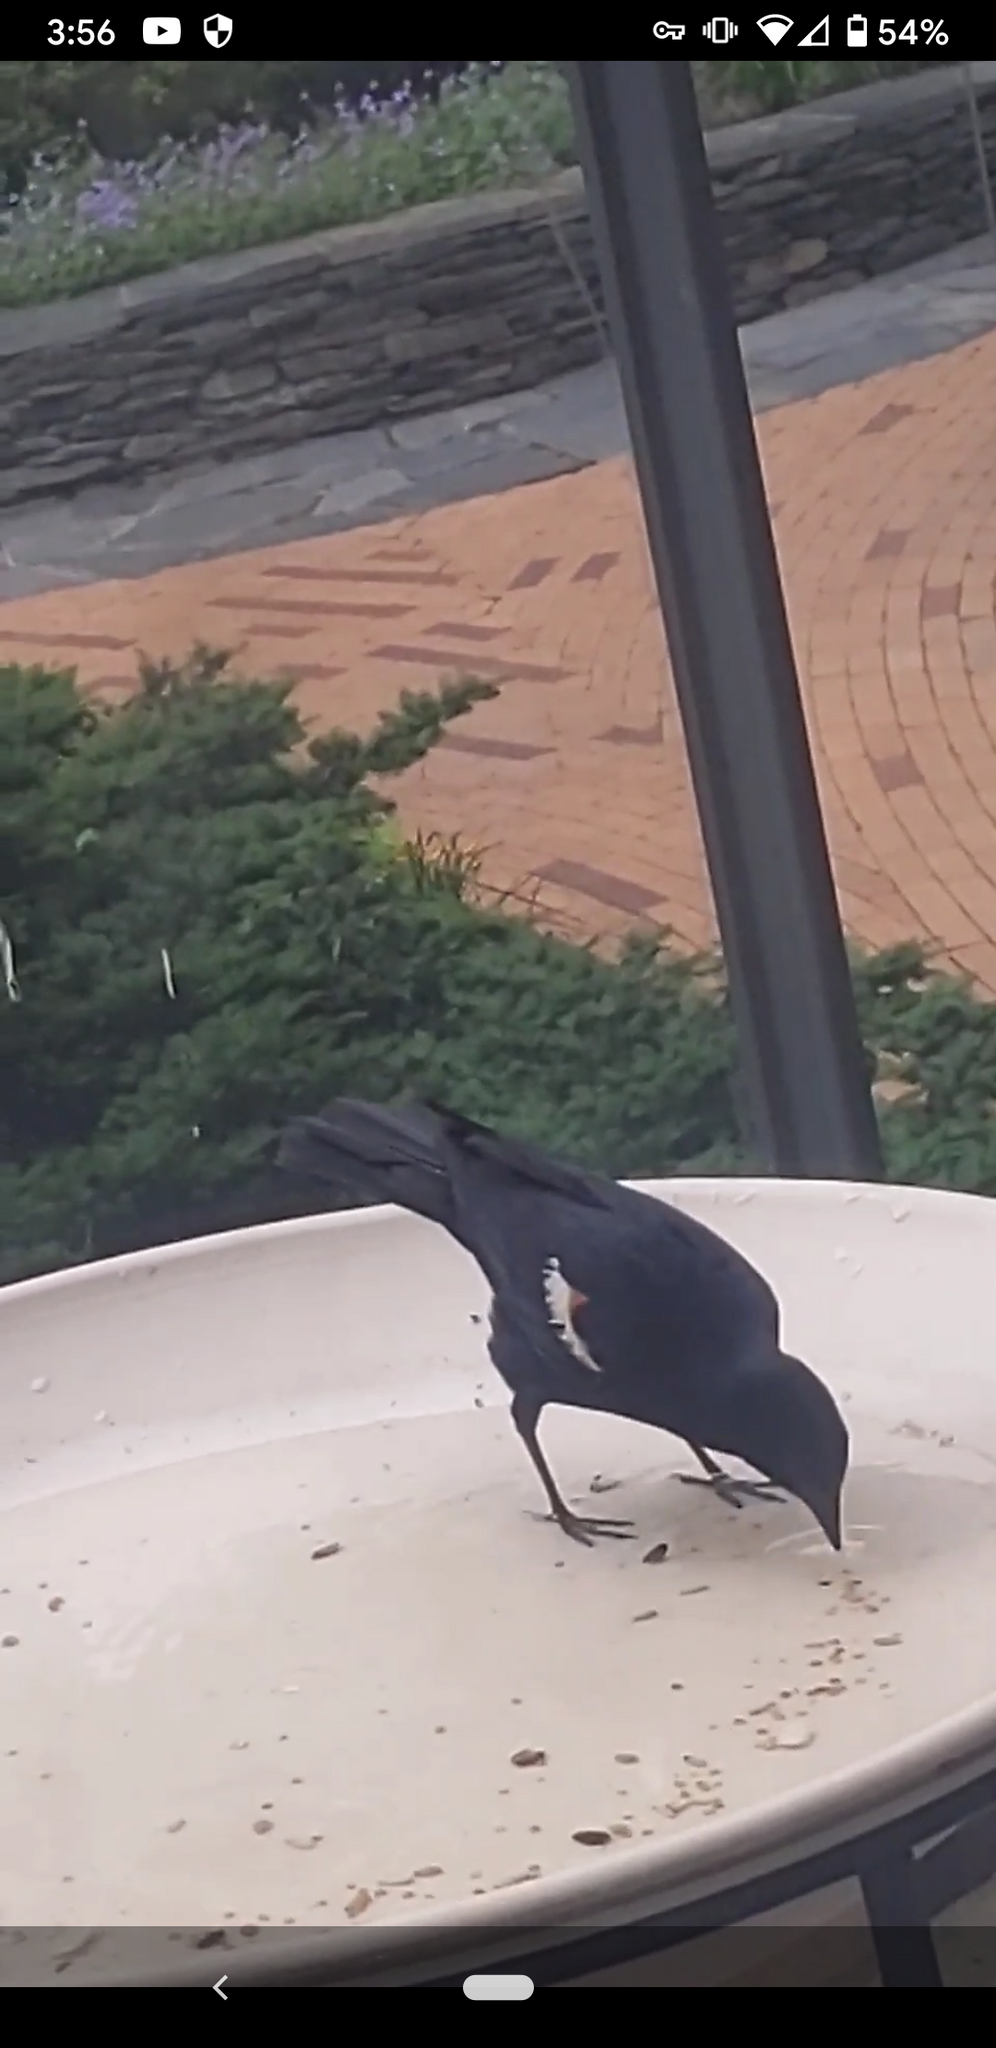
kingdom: Animalia
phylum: Chordata
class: Aves
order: Passeriformes
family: Icteridae
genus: Agelaius
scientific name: Agelaius phoeniceus
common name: Red-winged blackbird
